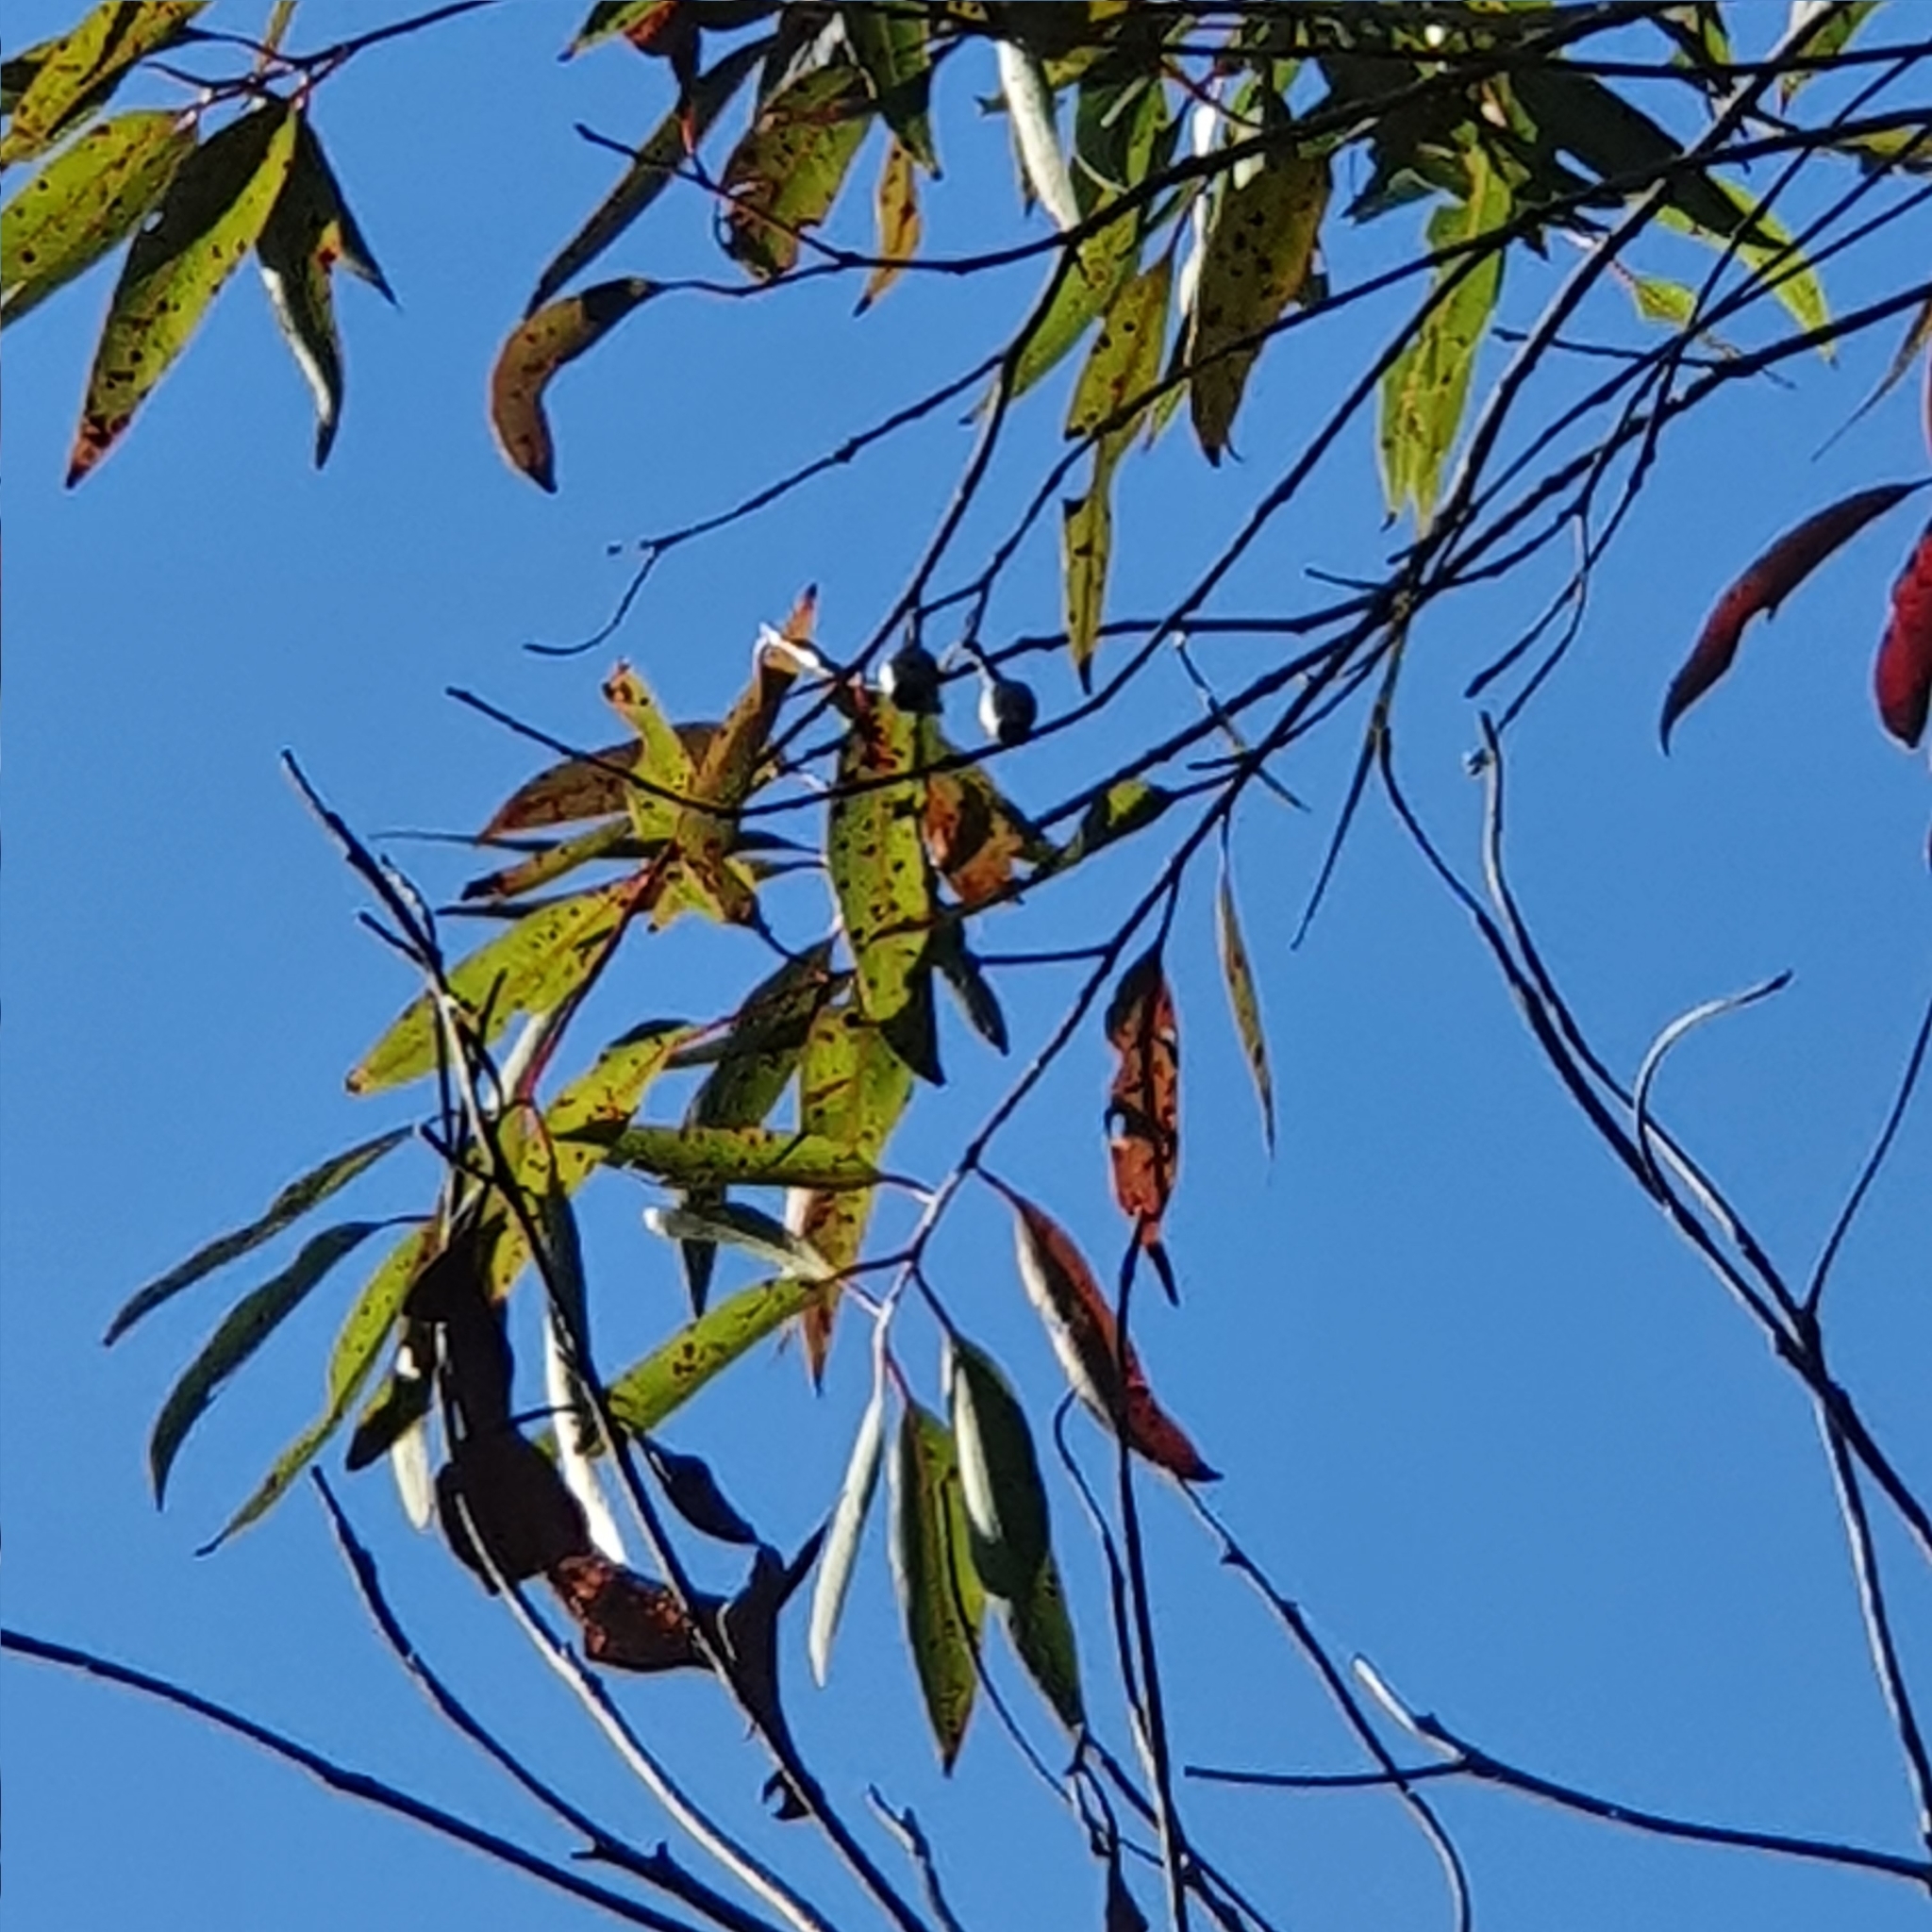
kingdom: Plantae
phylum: Tracheophyta
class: Magnoliopsida
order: Myrtales
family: Myrtaceae
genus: Corymbia
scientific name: Corymbia gummifera
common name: Red bloodwood
